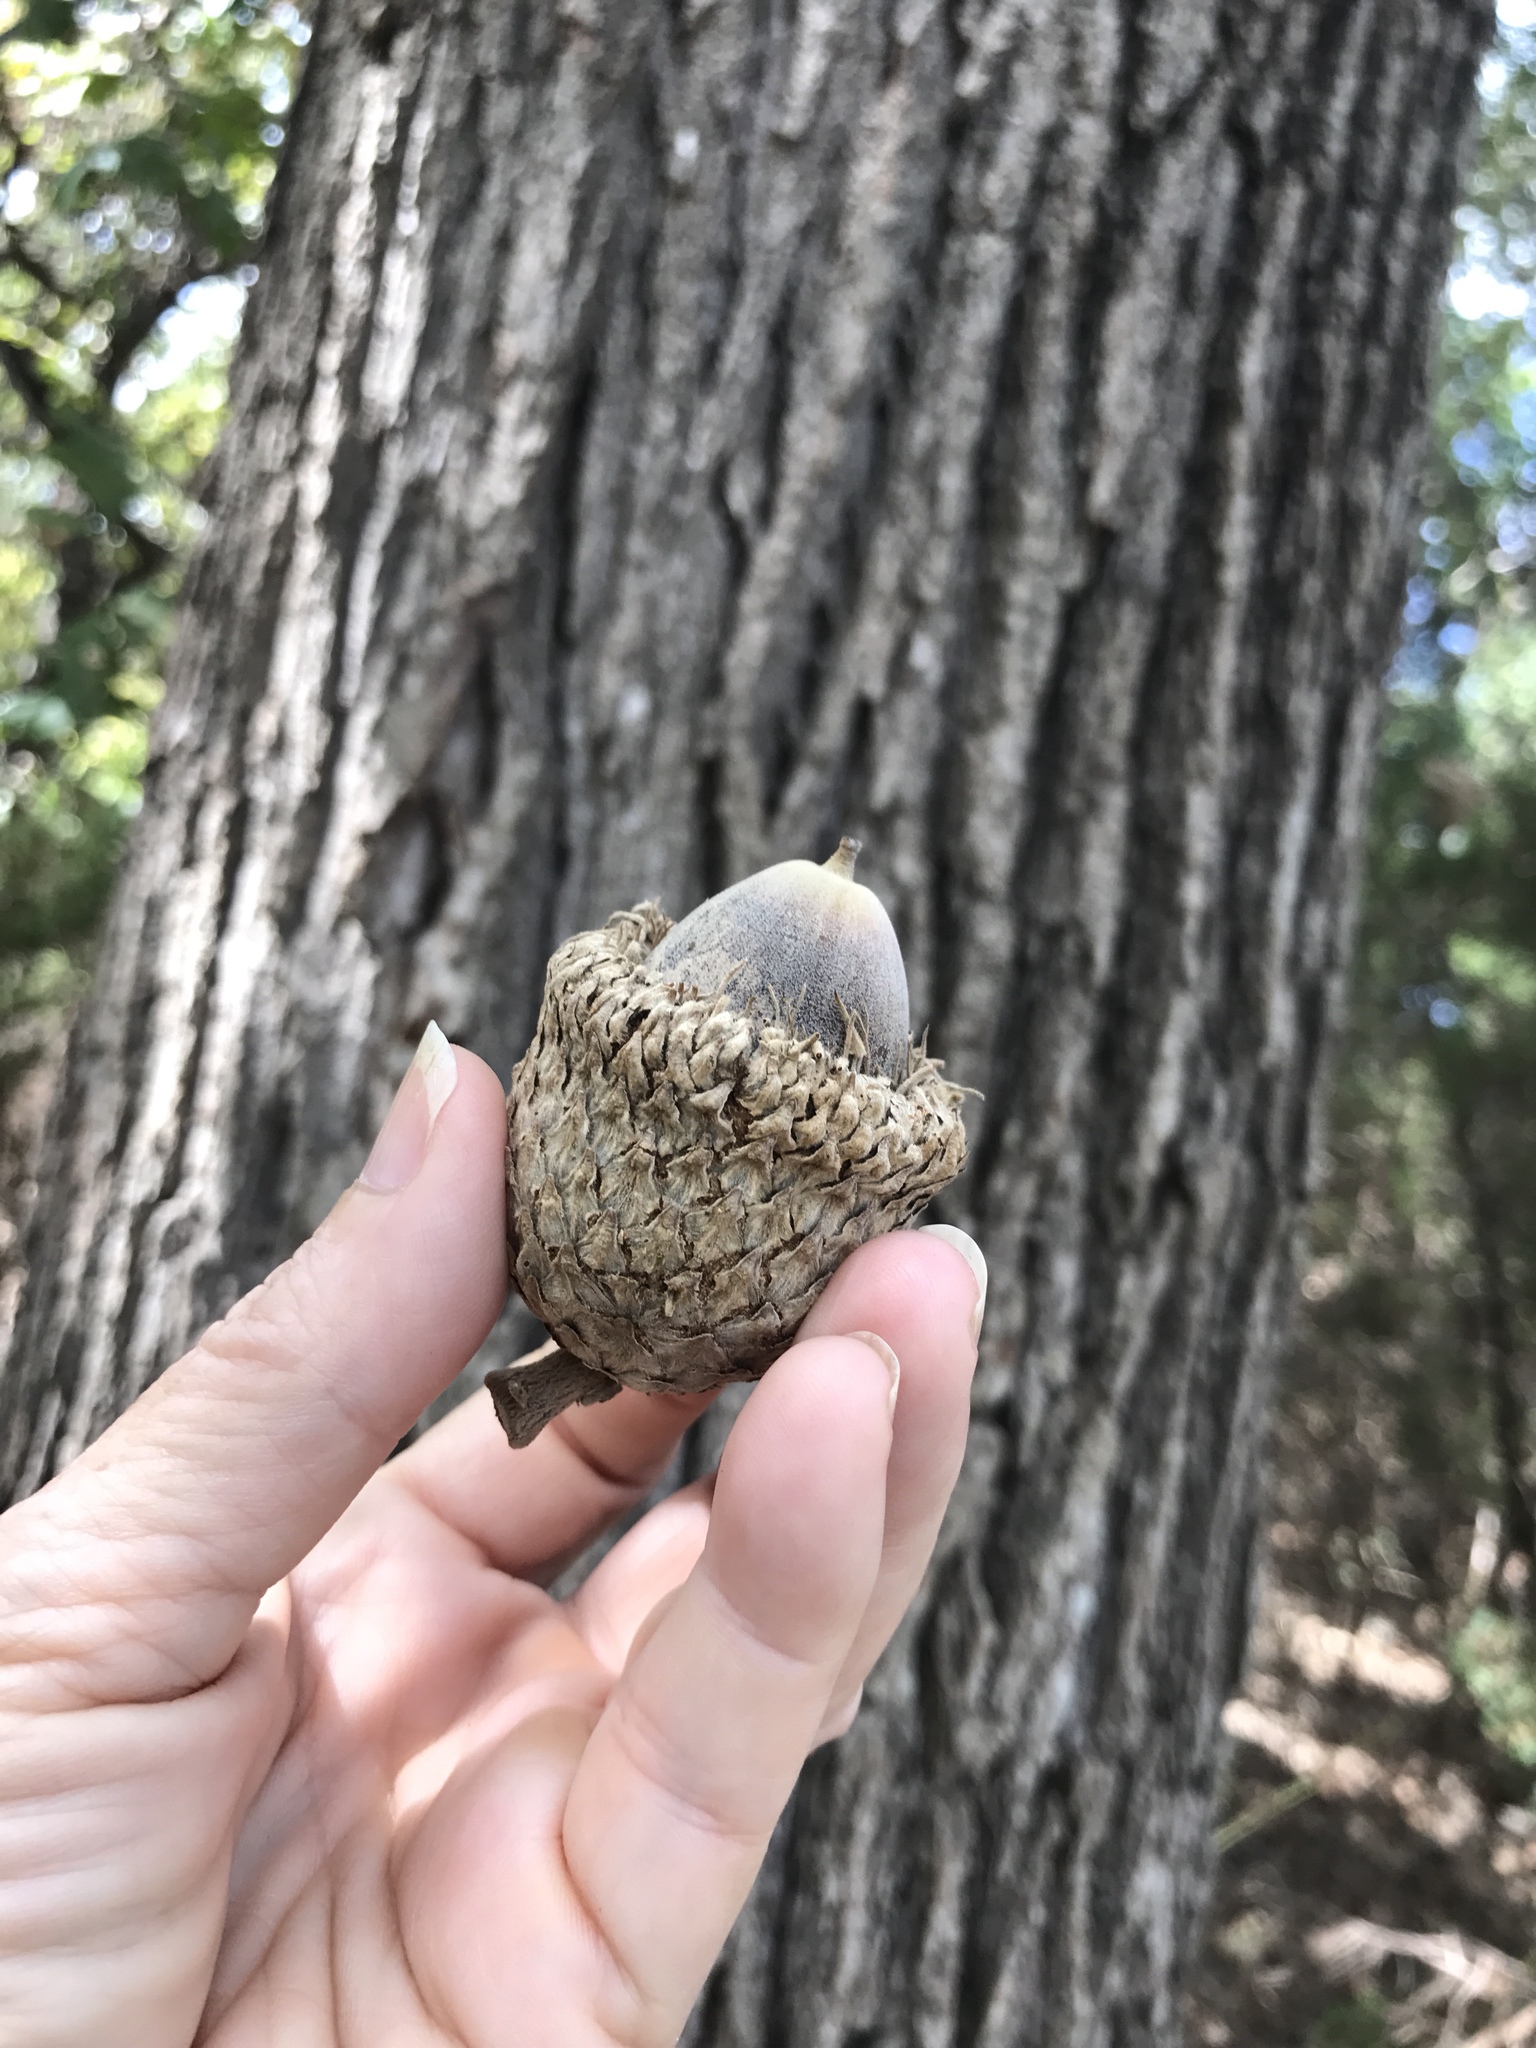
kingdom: Plantae
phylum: Tracheophyta
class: Magnoliopsida
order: Fagales
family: Fagaceae
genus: Quercus
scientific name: Quercus macrocarpa
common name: Bur oak
